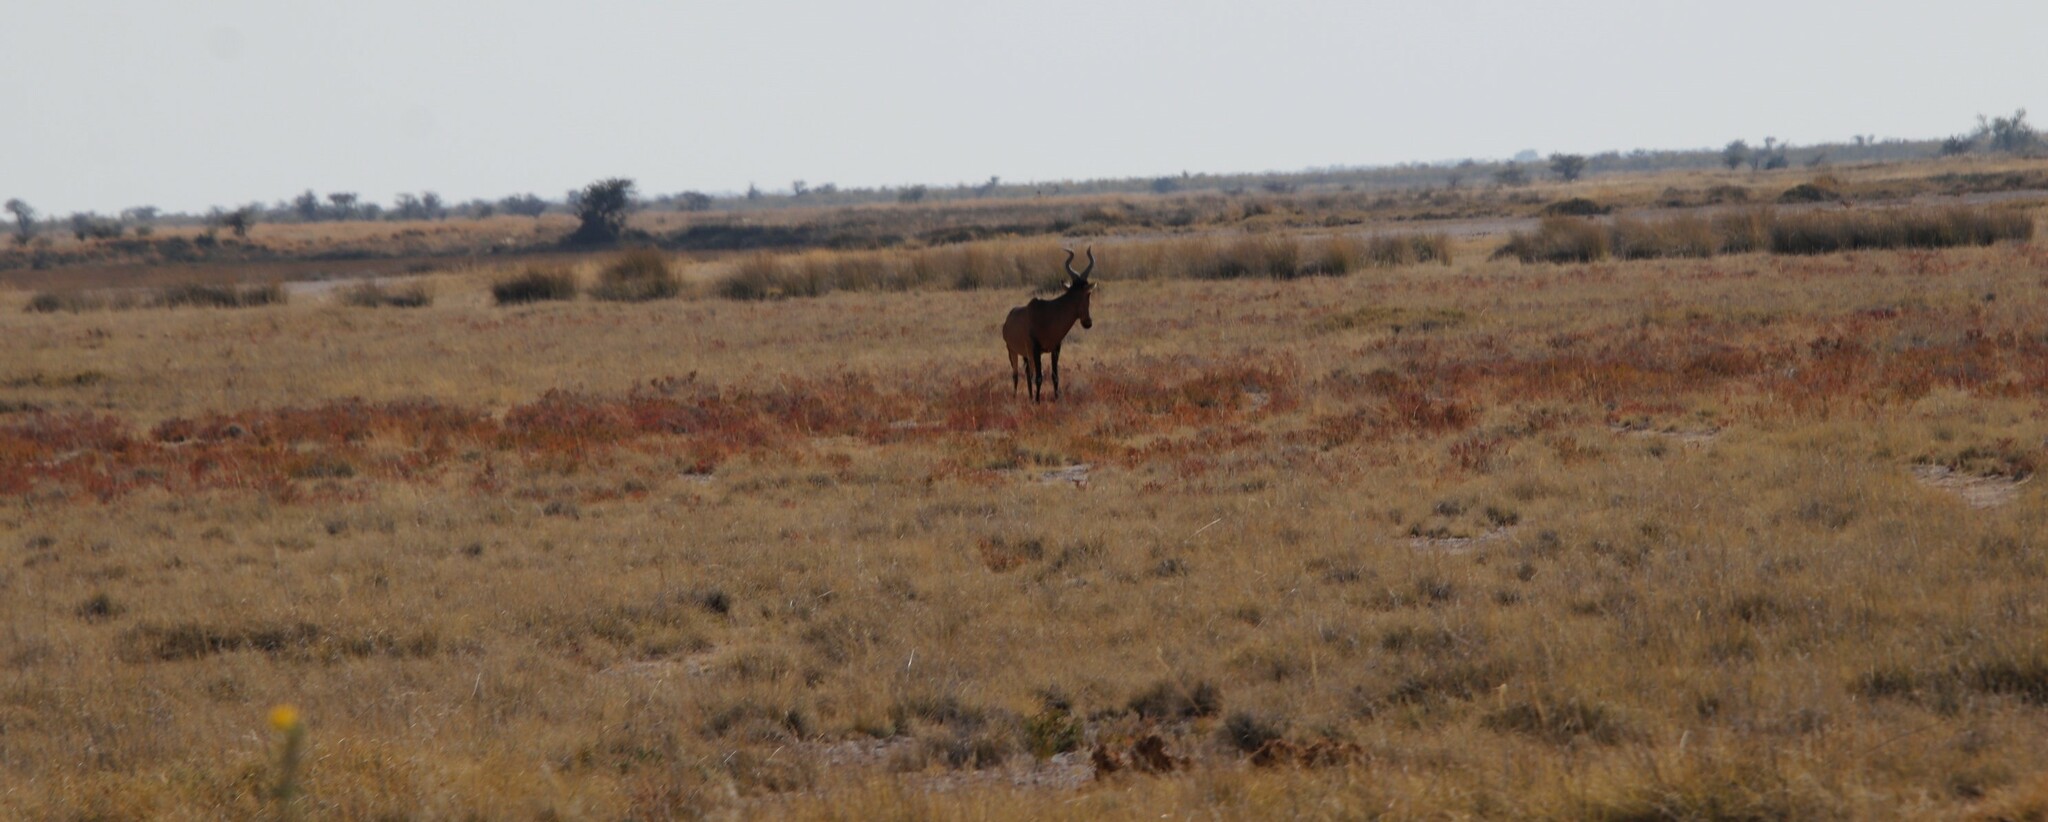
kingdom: Animalia
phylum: Chordata
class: Mammalia
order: Artiodactyla
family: Bovidae
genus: Alcelaphus
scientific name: Alcelaphus caama
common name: Red hartebeest
